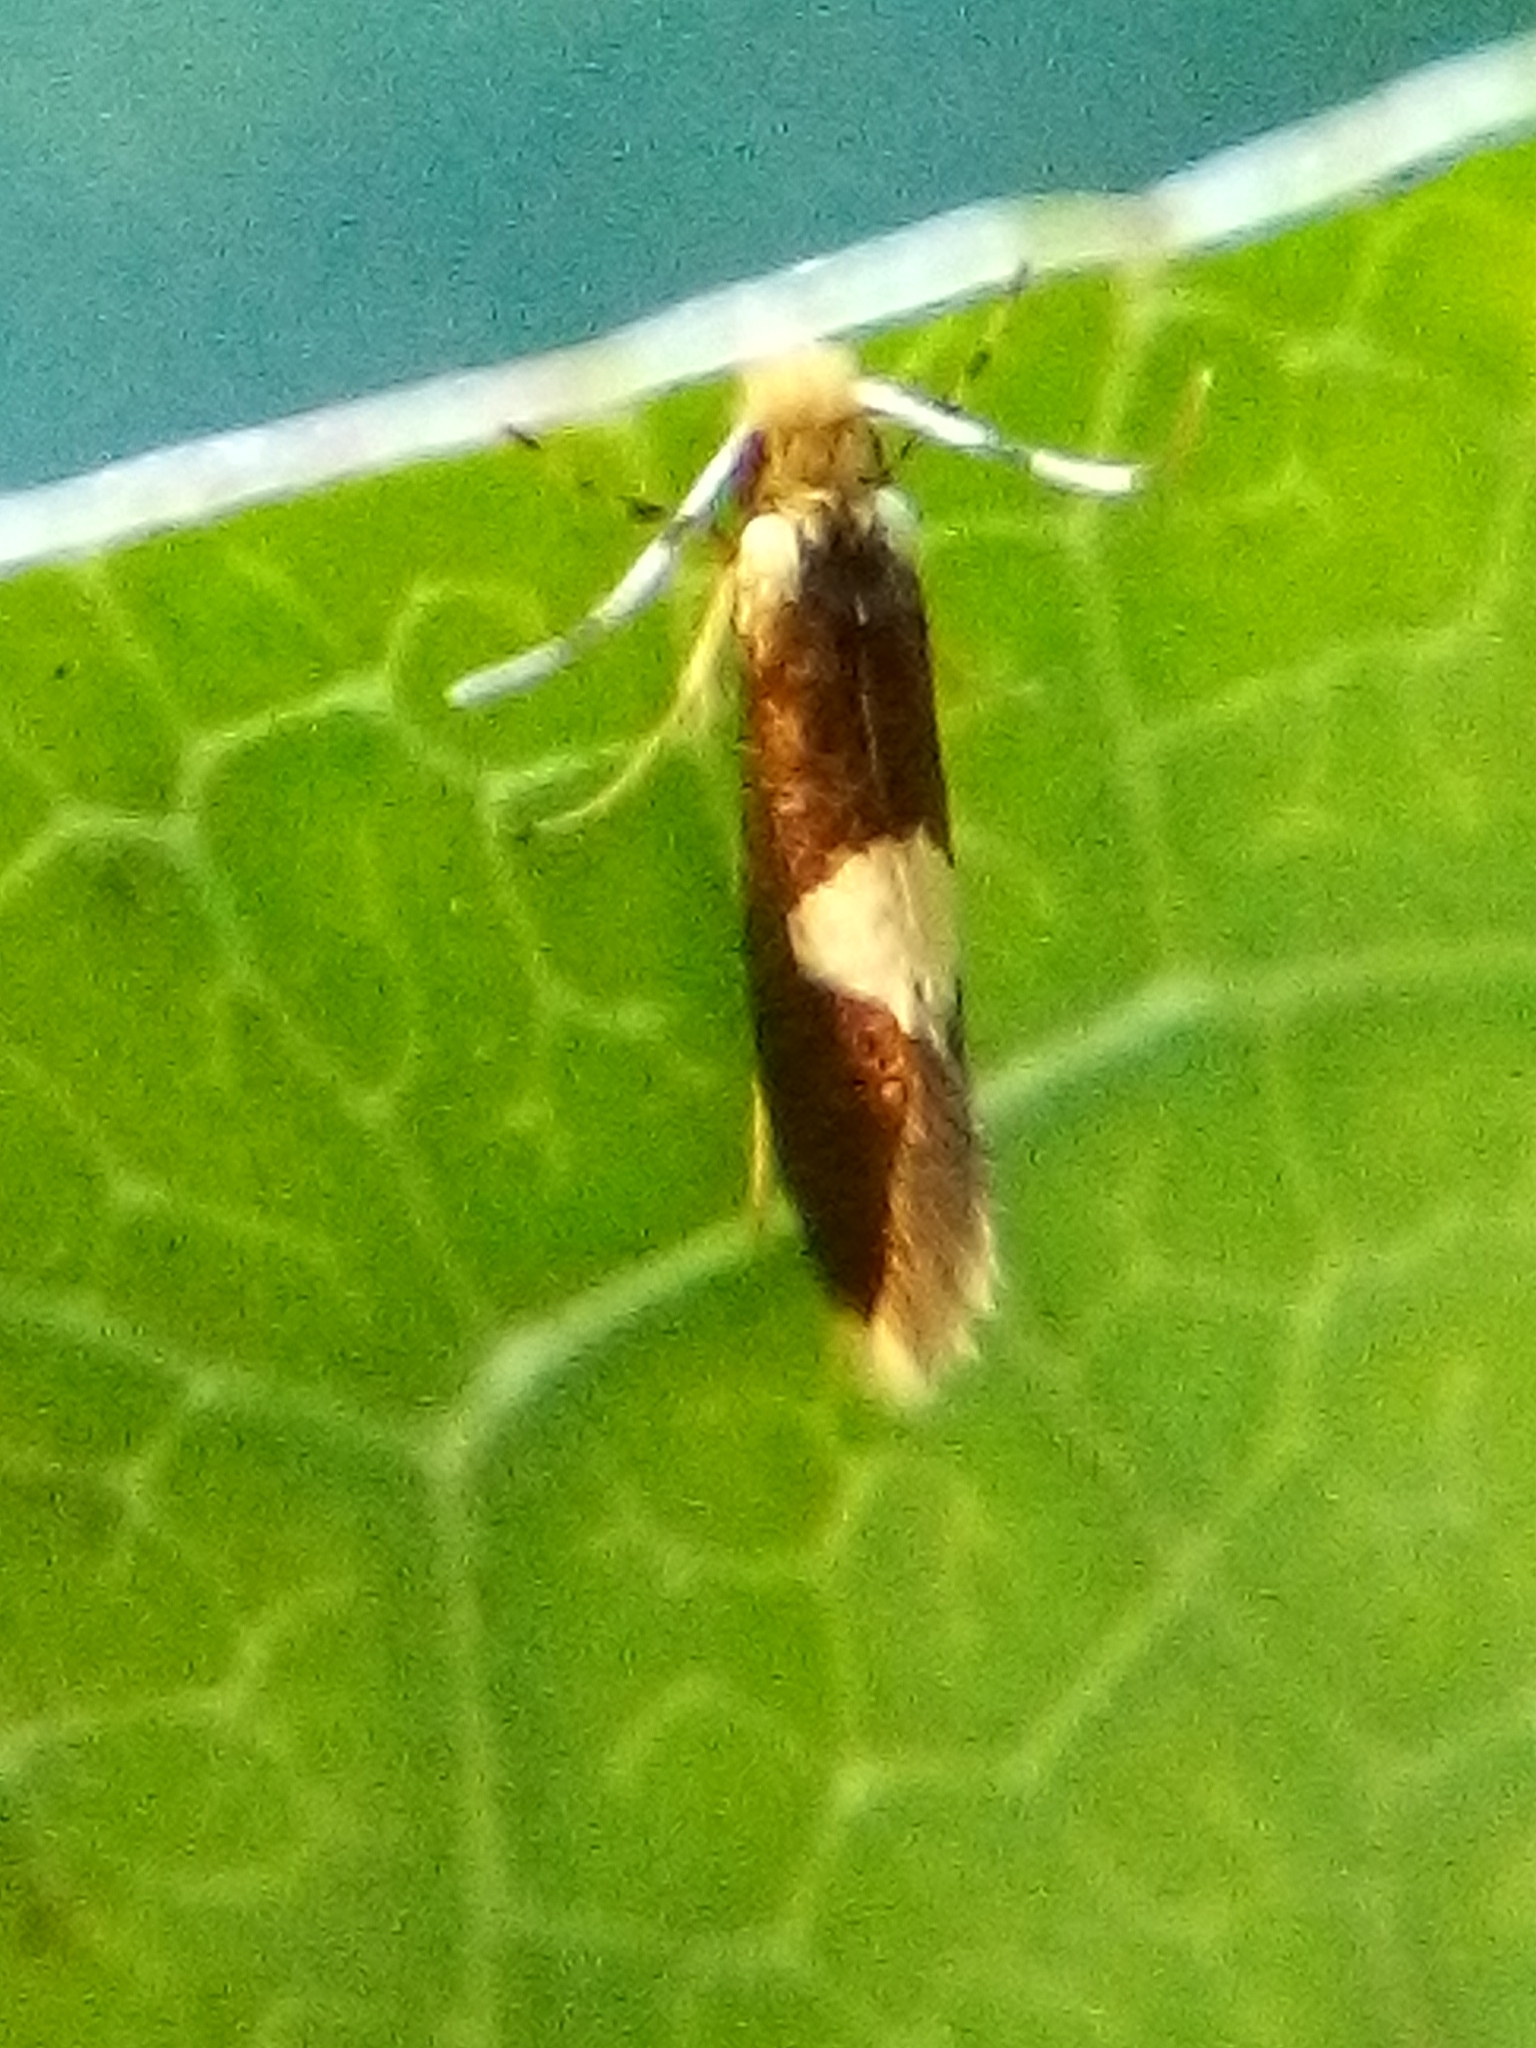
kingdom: Animalia
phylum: Arthropoda
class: Insecta
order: Lepidoptera
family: Micropterigidae
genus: Zealandopterix
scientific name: Zealandopterix zonodoxa
